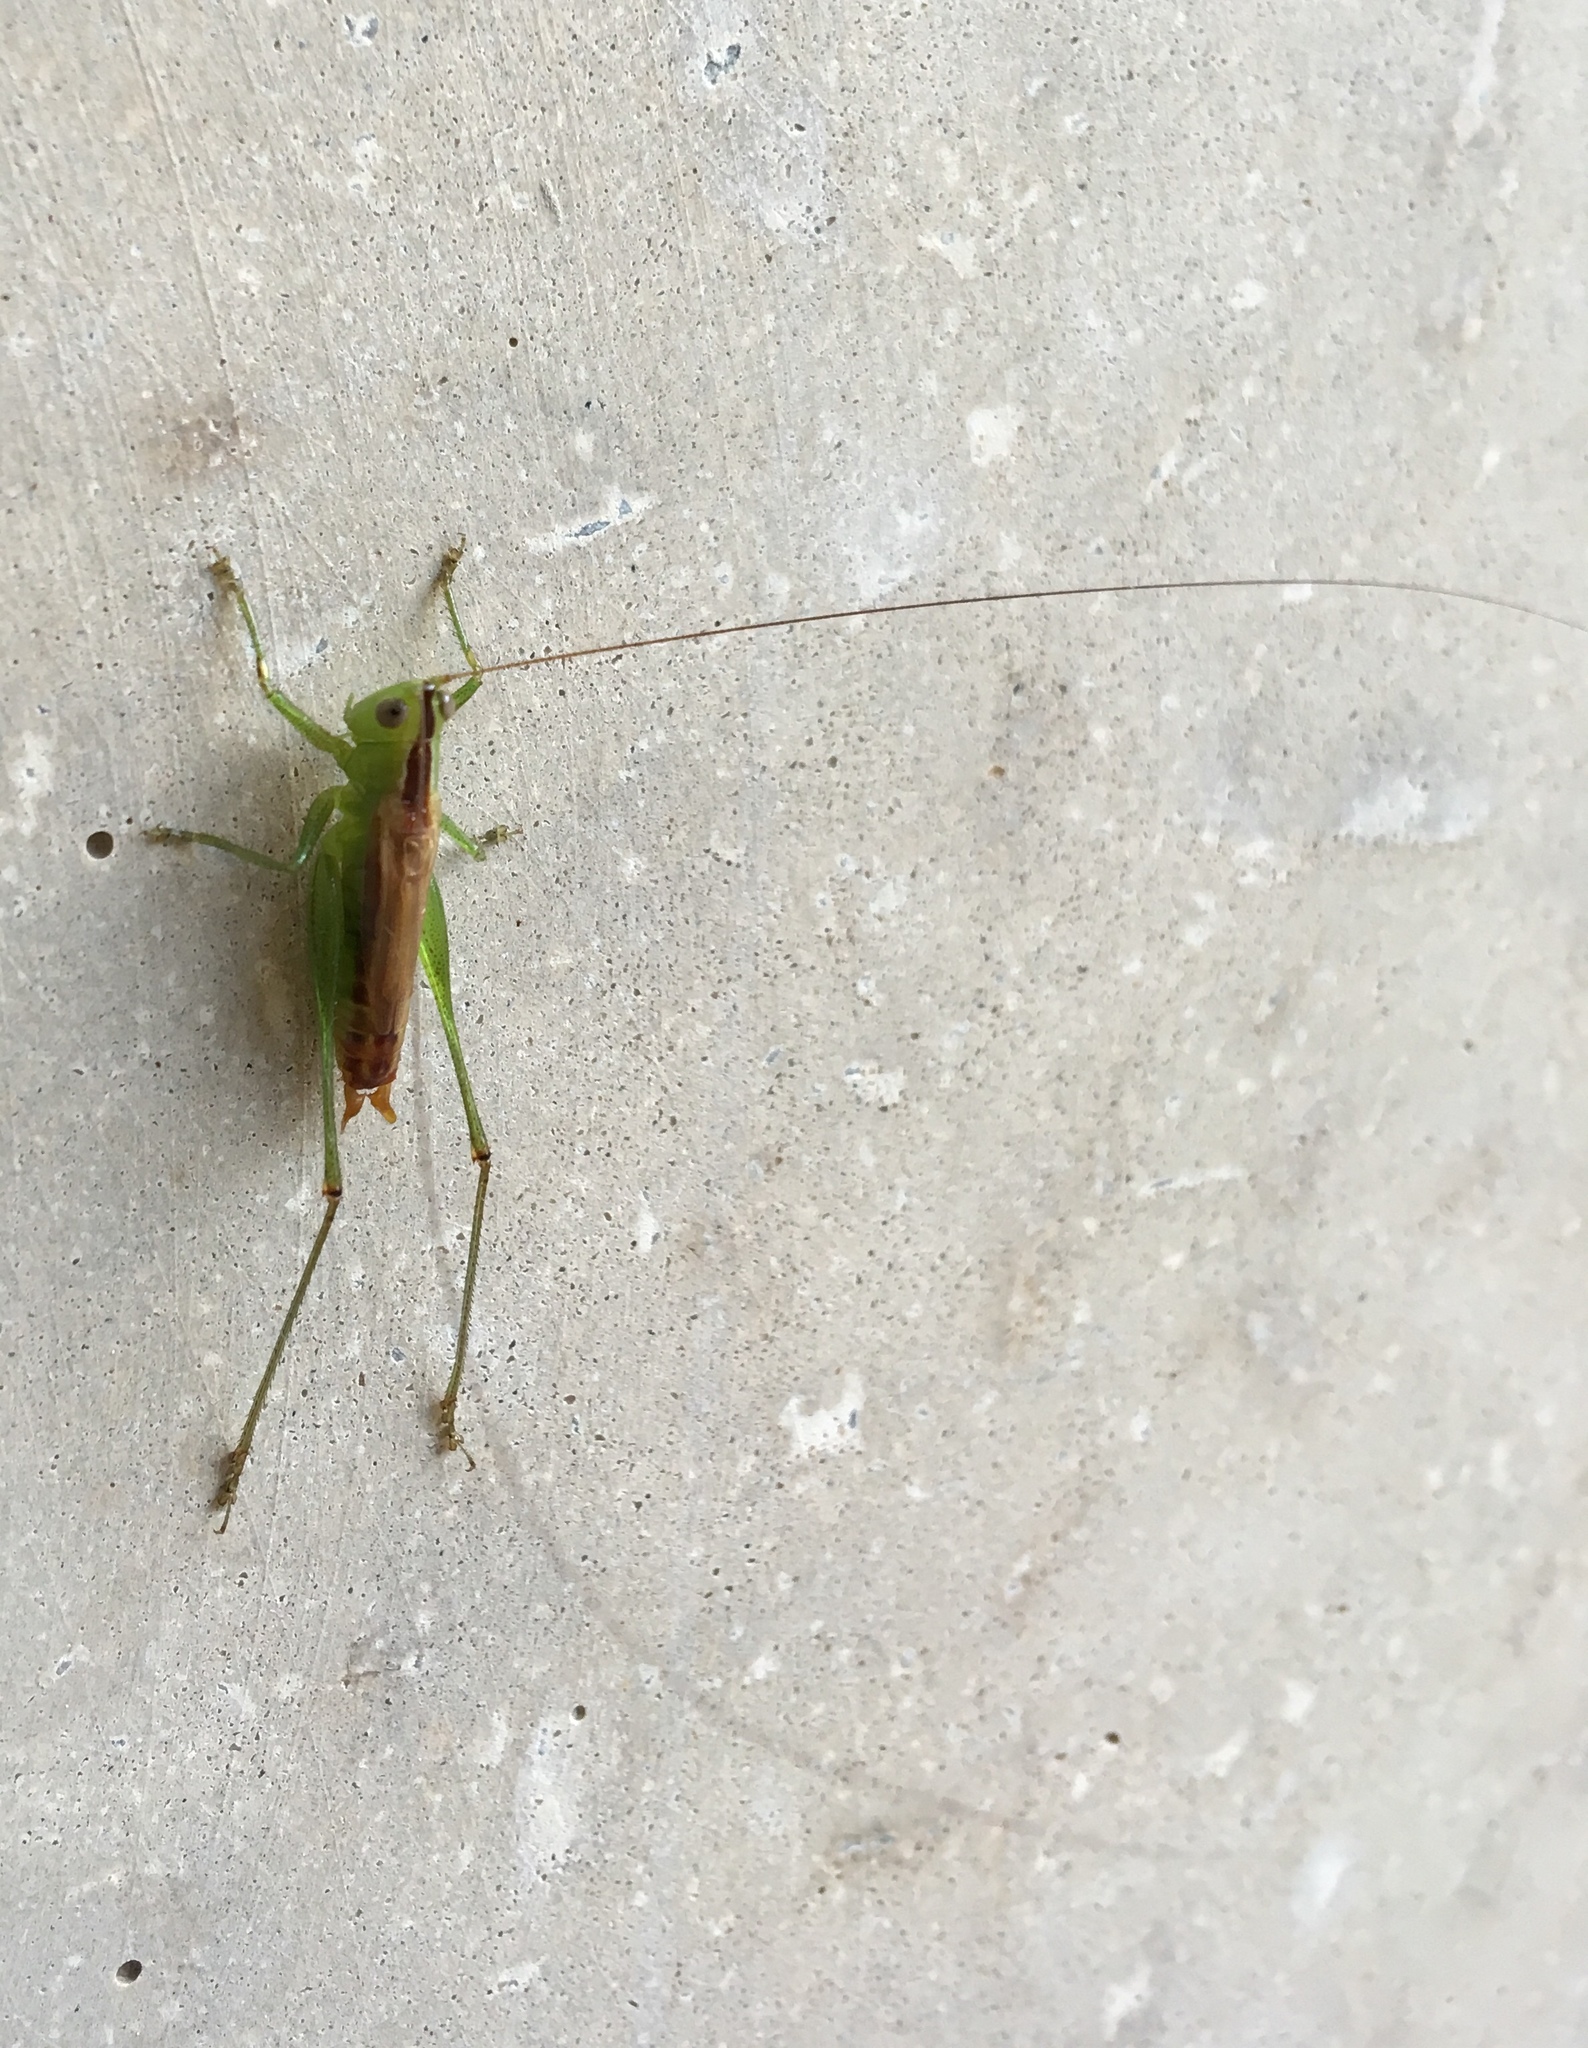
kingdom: Animalia
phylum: Arthropoda
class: Insecta
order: Orthoptera
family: Tettigoniidae
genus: Conocephalus
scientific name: Conocephalus brevipennis
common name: Short-winged meadow katydid
